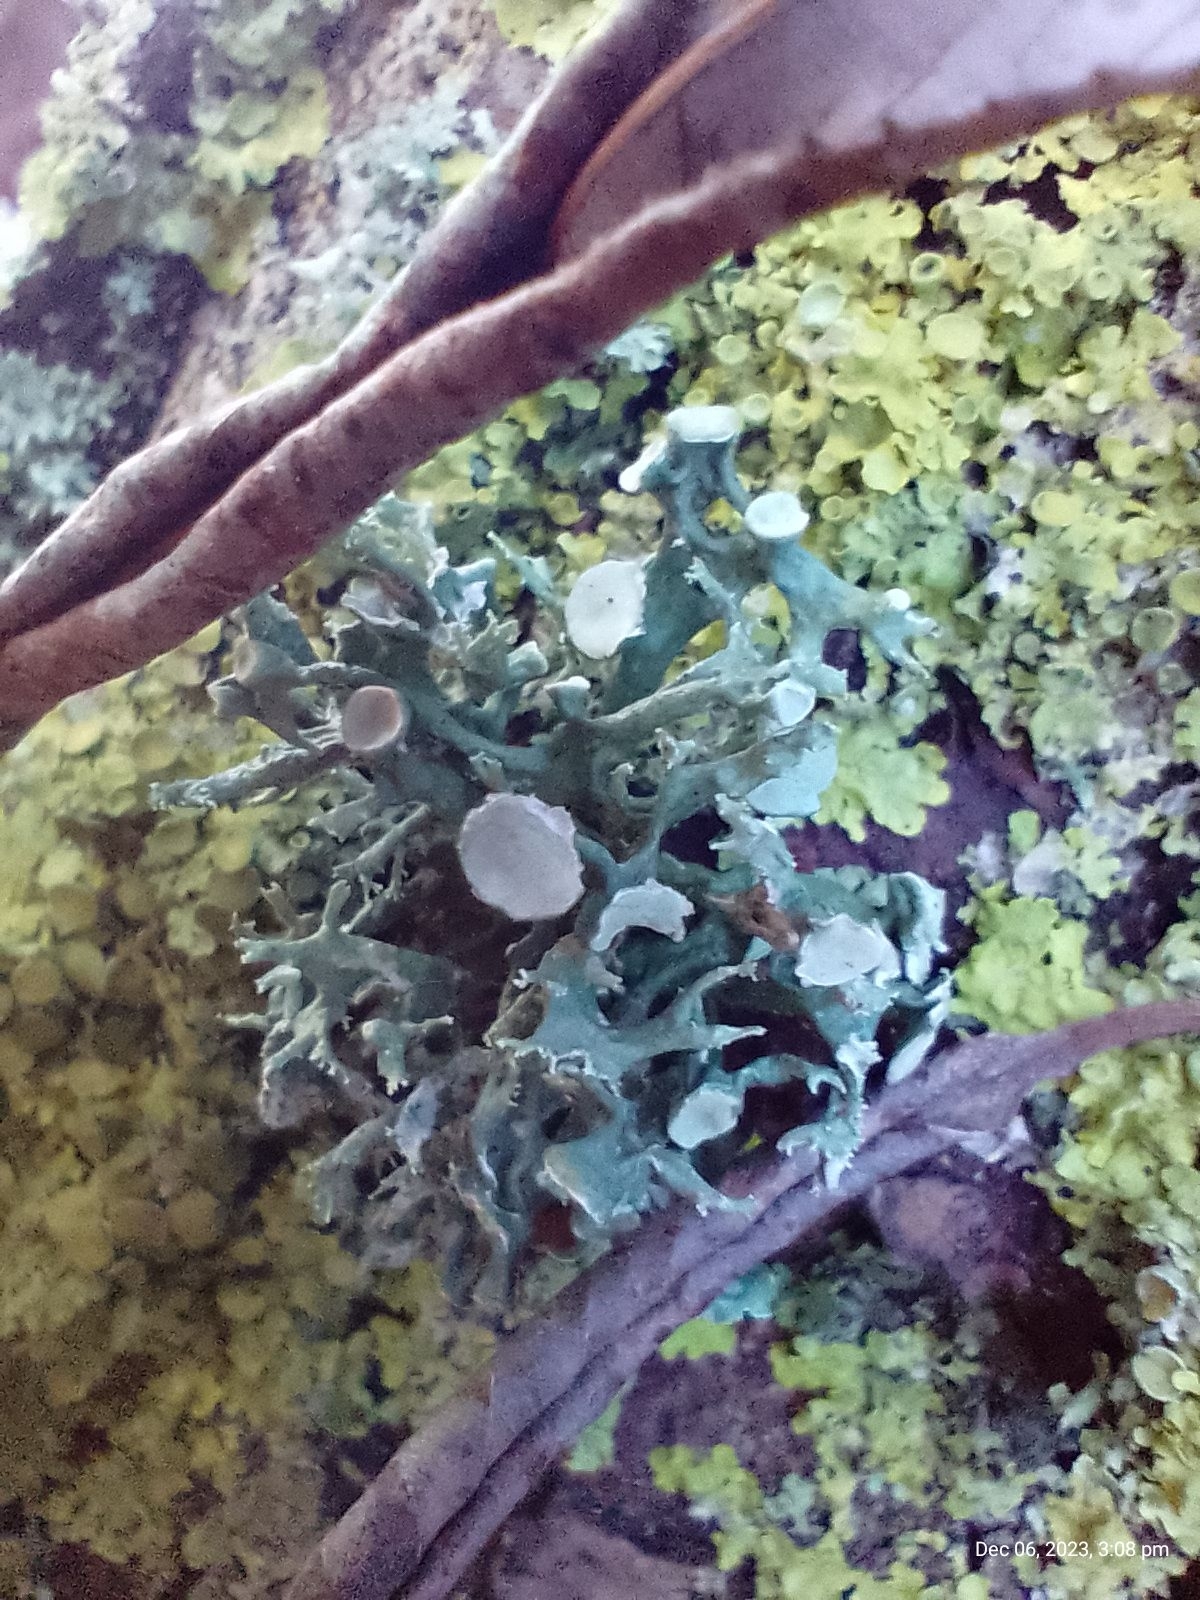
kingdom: Fungi
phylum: Ascomycota
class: Lecanoromycetes
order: Lecanorales
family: Ramalinaceae
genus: Ramalina
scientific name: Ramalina fastigiata
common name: Dotted ribbon lichen
